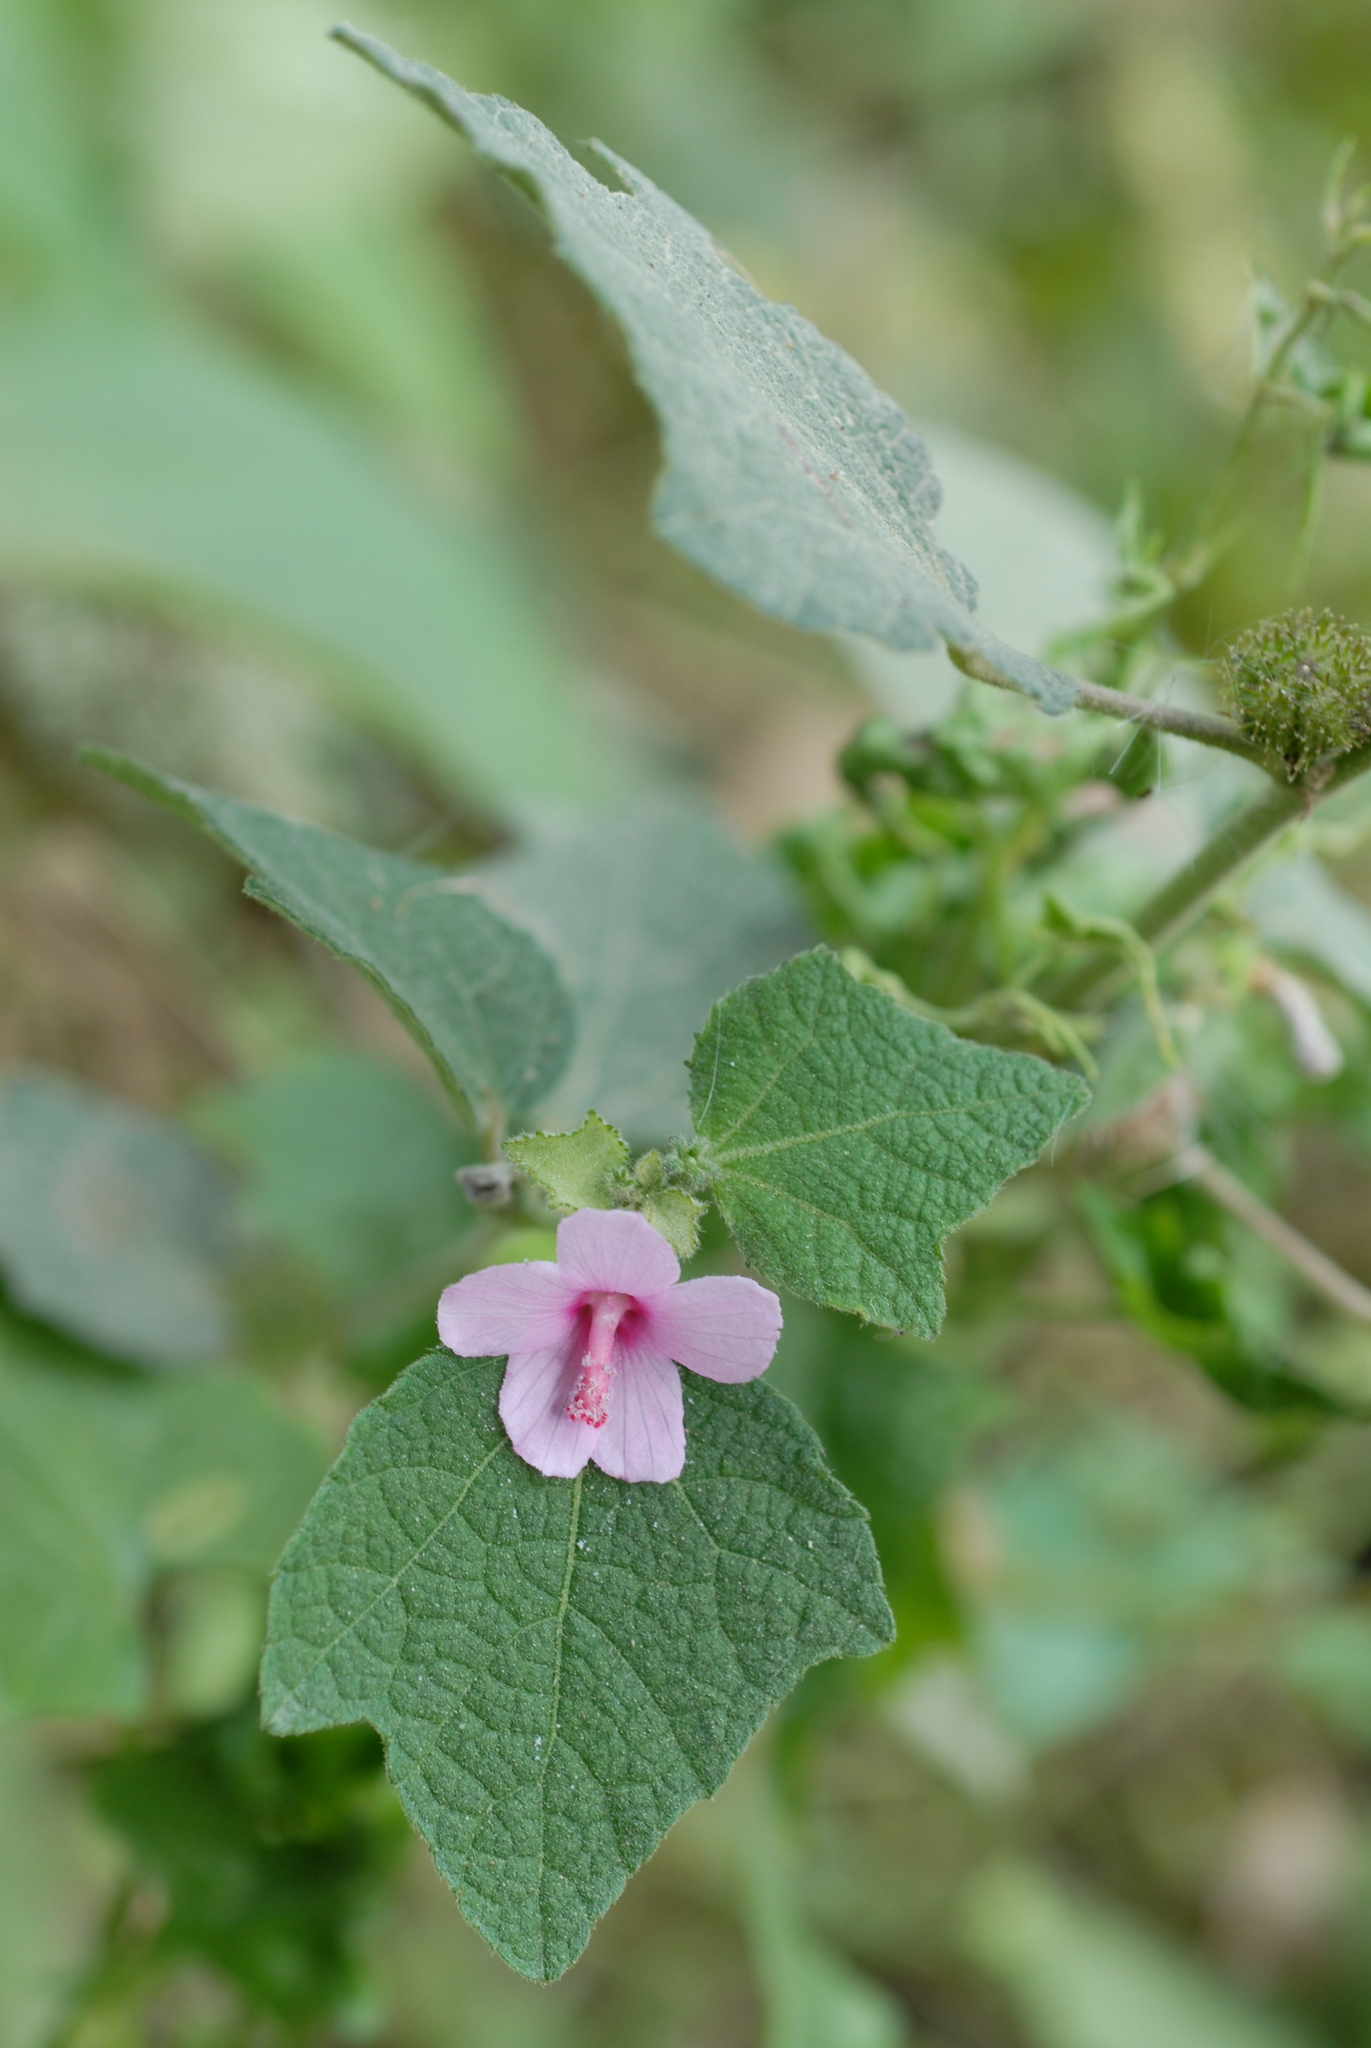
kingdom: Plantae
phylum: Tracheophyta
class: Magnoliopsida
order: Malvales
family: Malvaceae
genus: Urena
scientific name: Urena lobata
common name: Caesarweed
